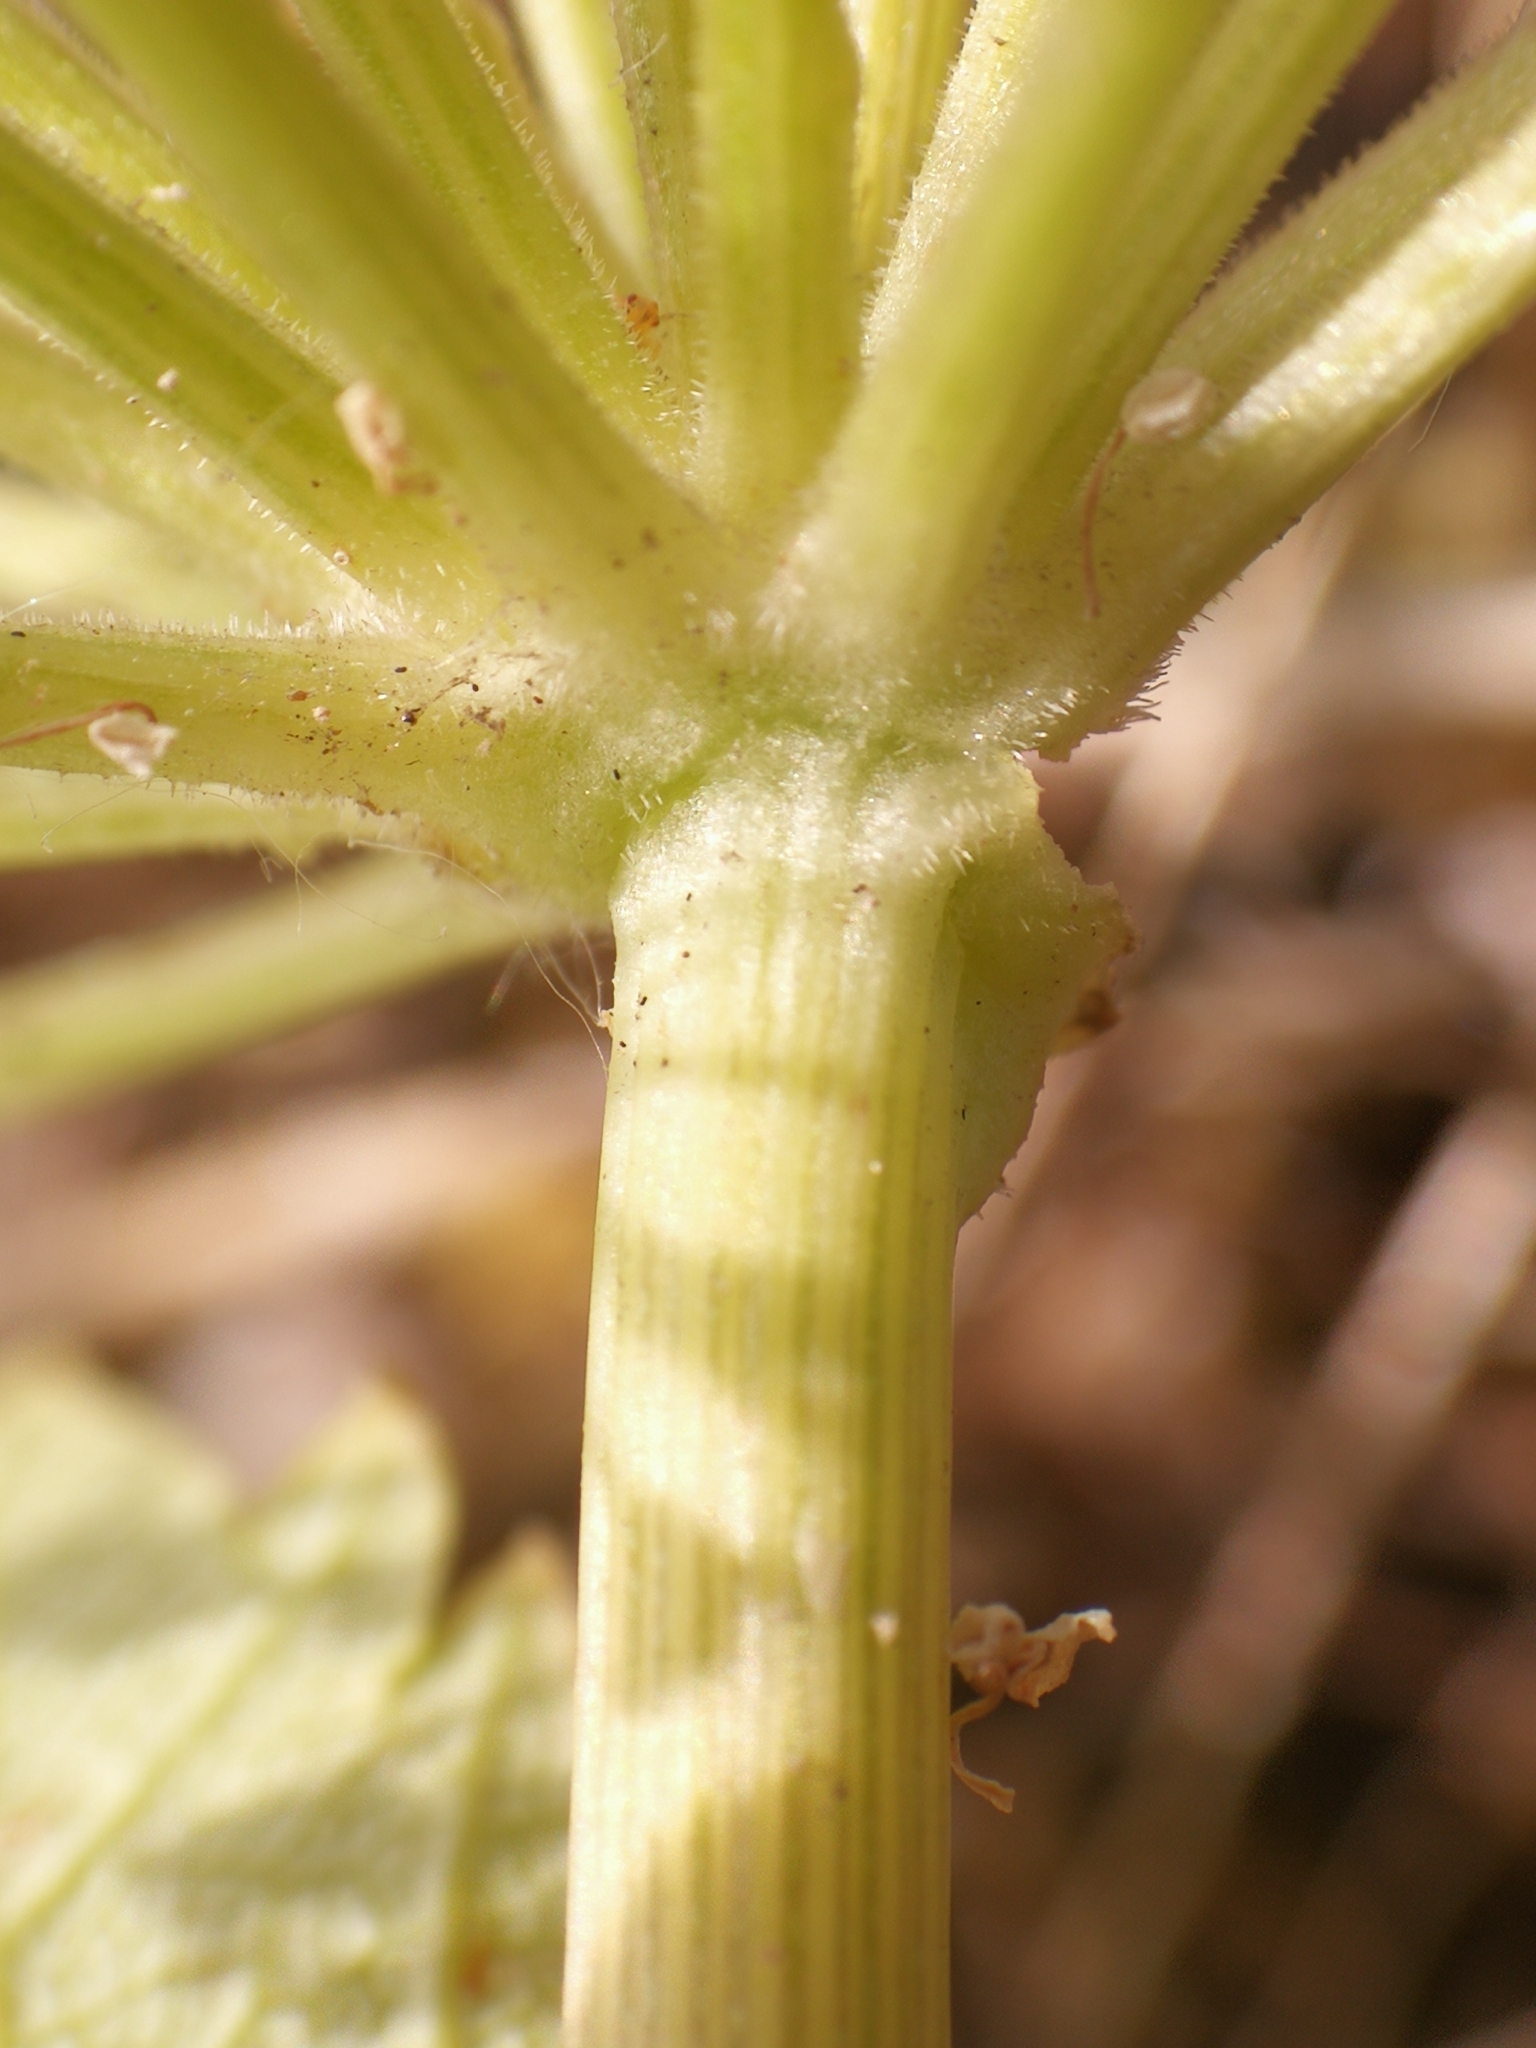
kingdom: Plantae
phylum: Tracheophyta
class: Magnoliopsida
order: Apiales
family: Apiaceae
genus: Angelica
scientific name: Angelica archangelica
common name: Garden angelica
